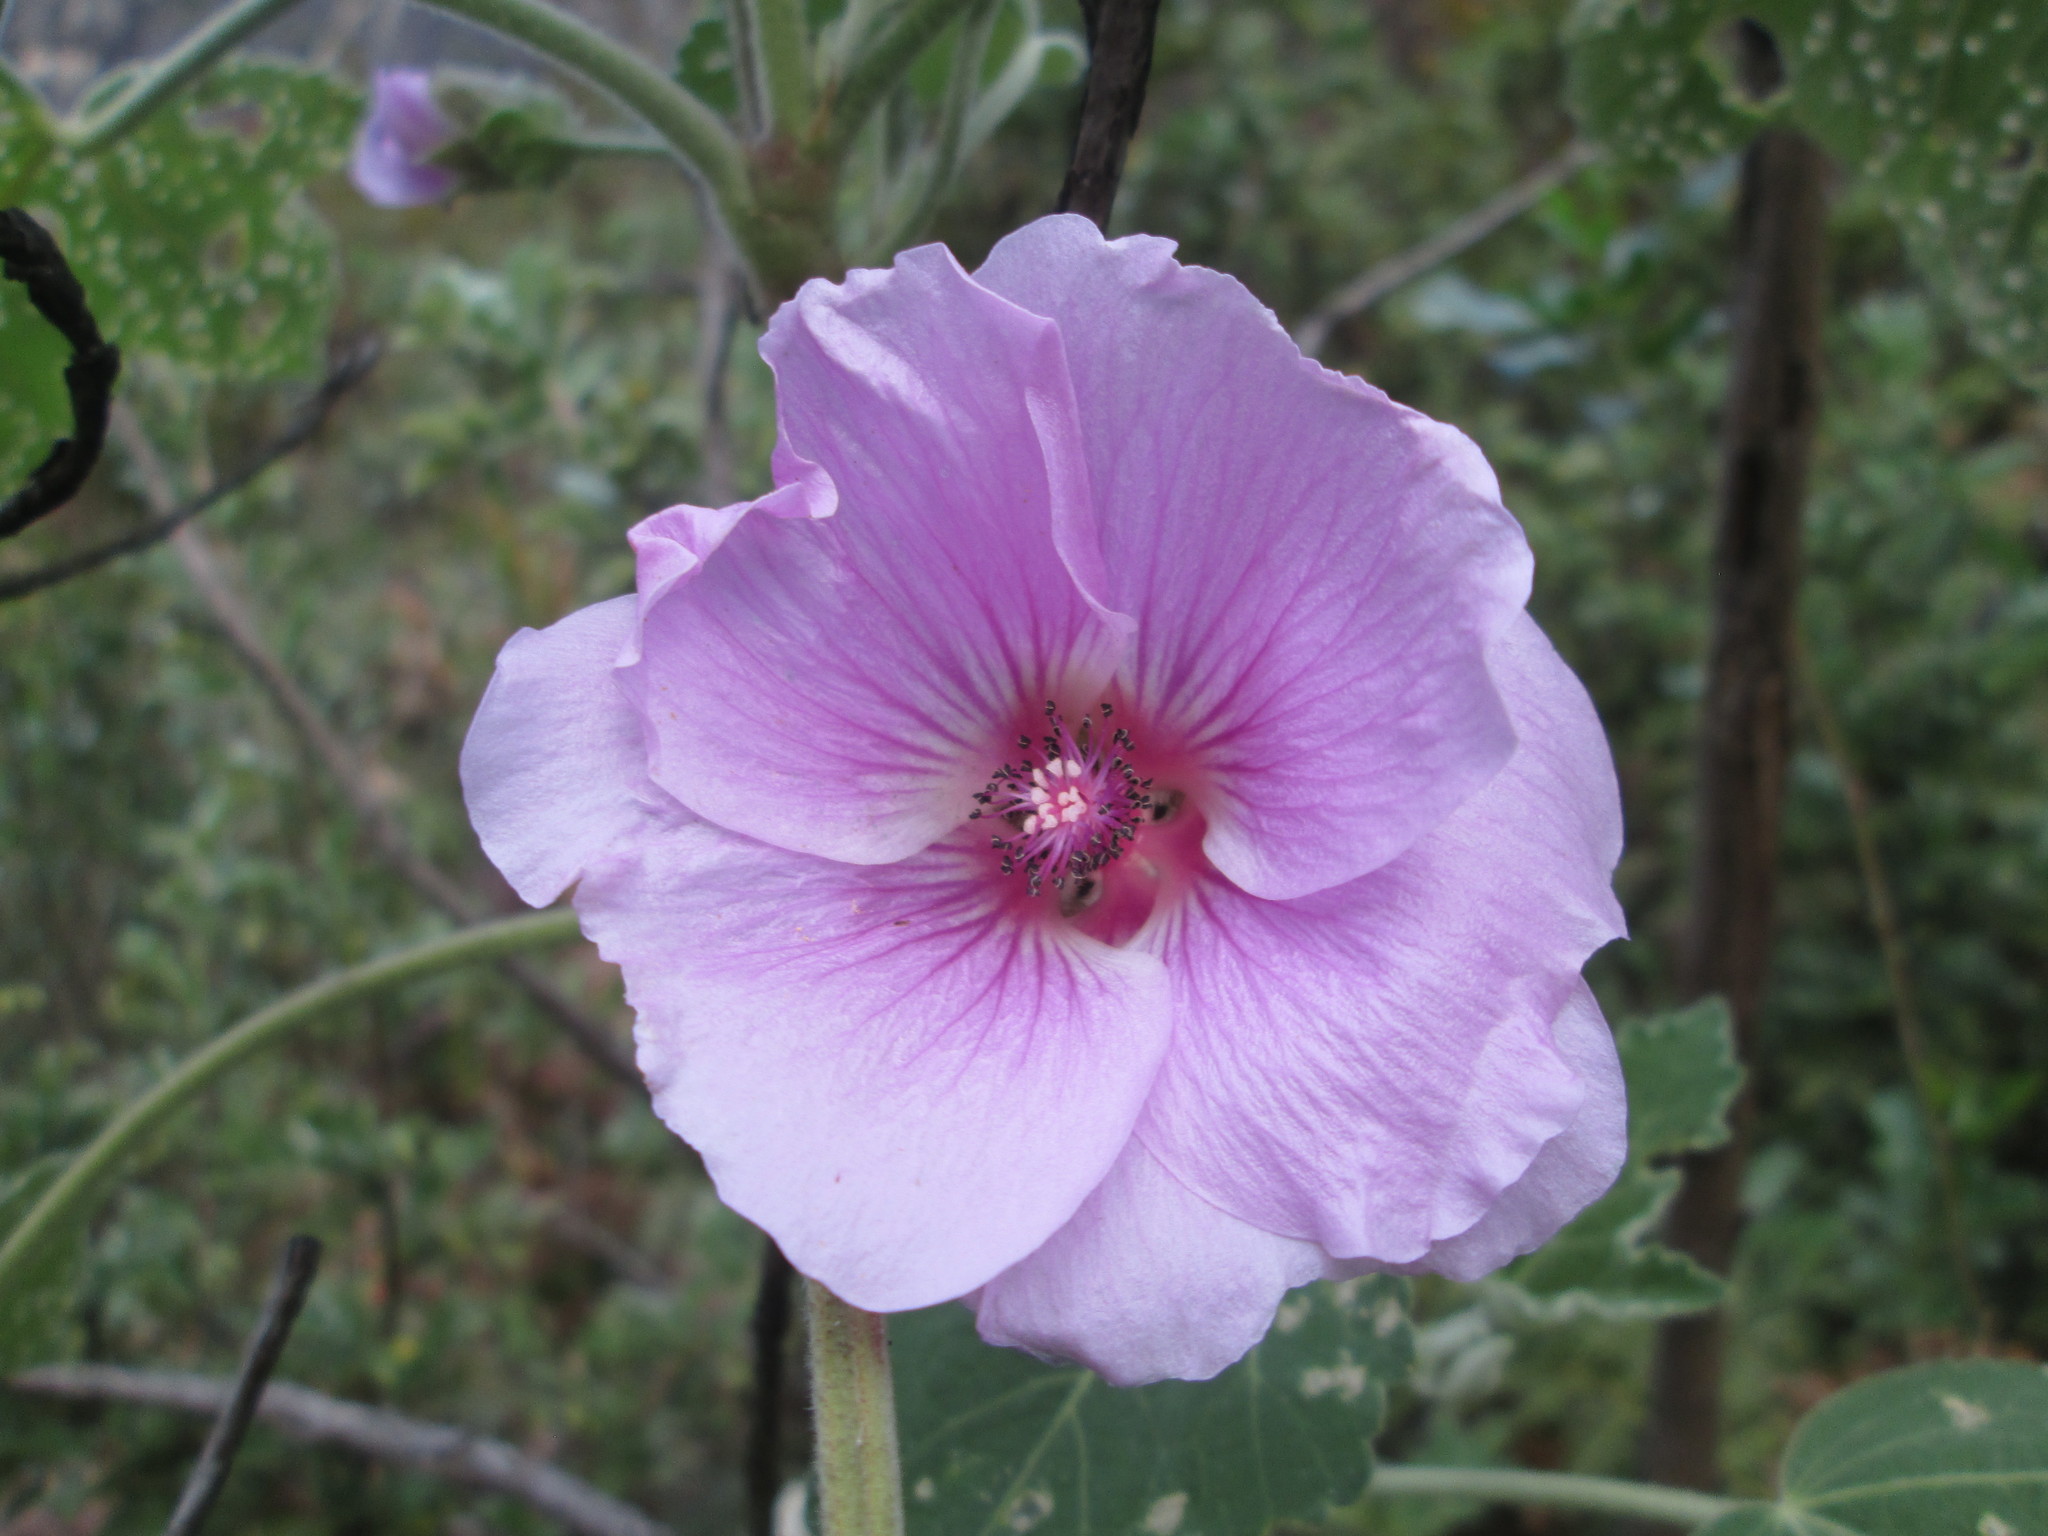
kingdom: Plantae
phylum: Tracheophyta
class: Magnoliopsida
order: Malvales
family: Malvaceae
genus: Anisodontea
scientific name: Anisodontea julii
